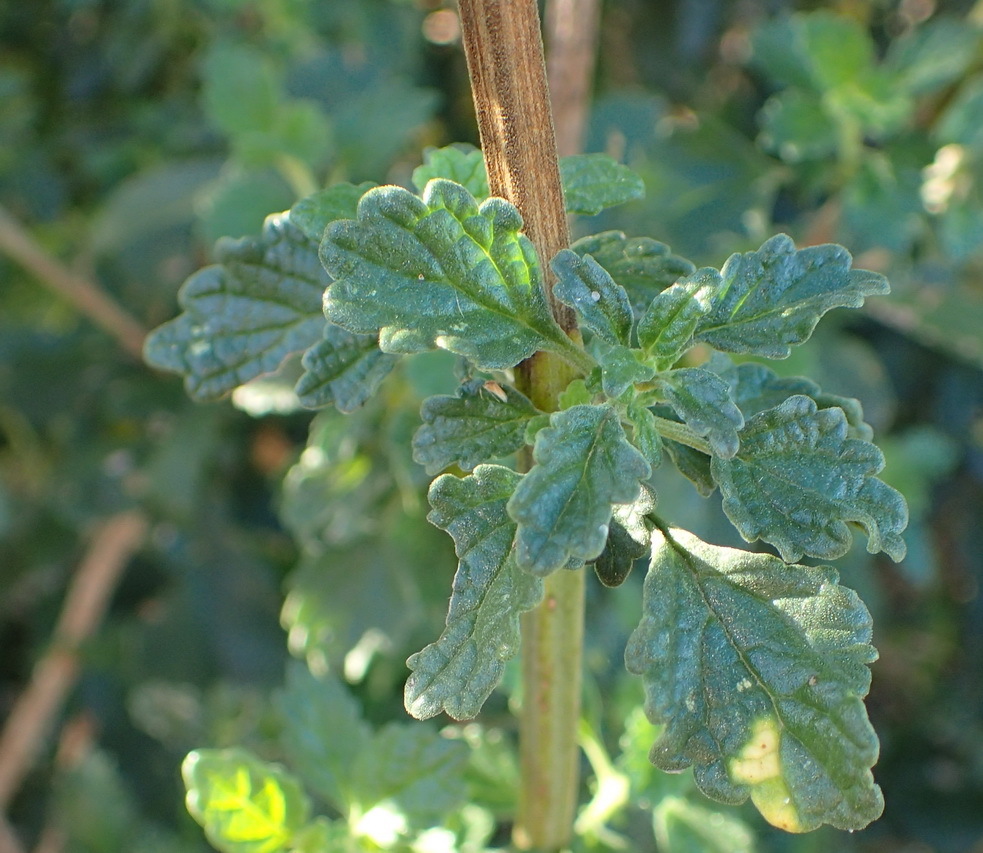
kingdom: Plantae
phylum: Tracheophyta
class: Magnoliopsida
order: Lamiales
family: Lamiaceae
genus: Leonotis
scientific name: Leonotis ocymifolia
